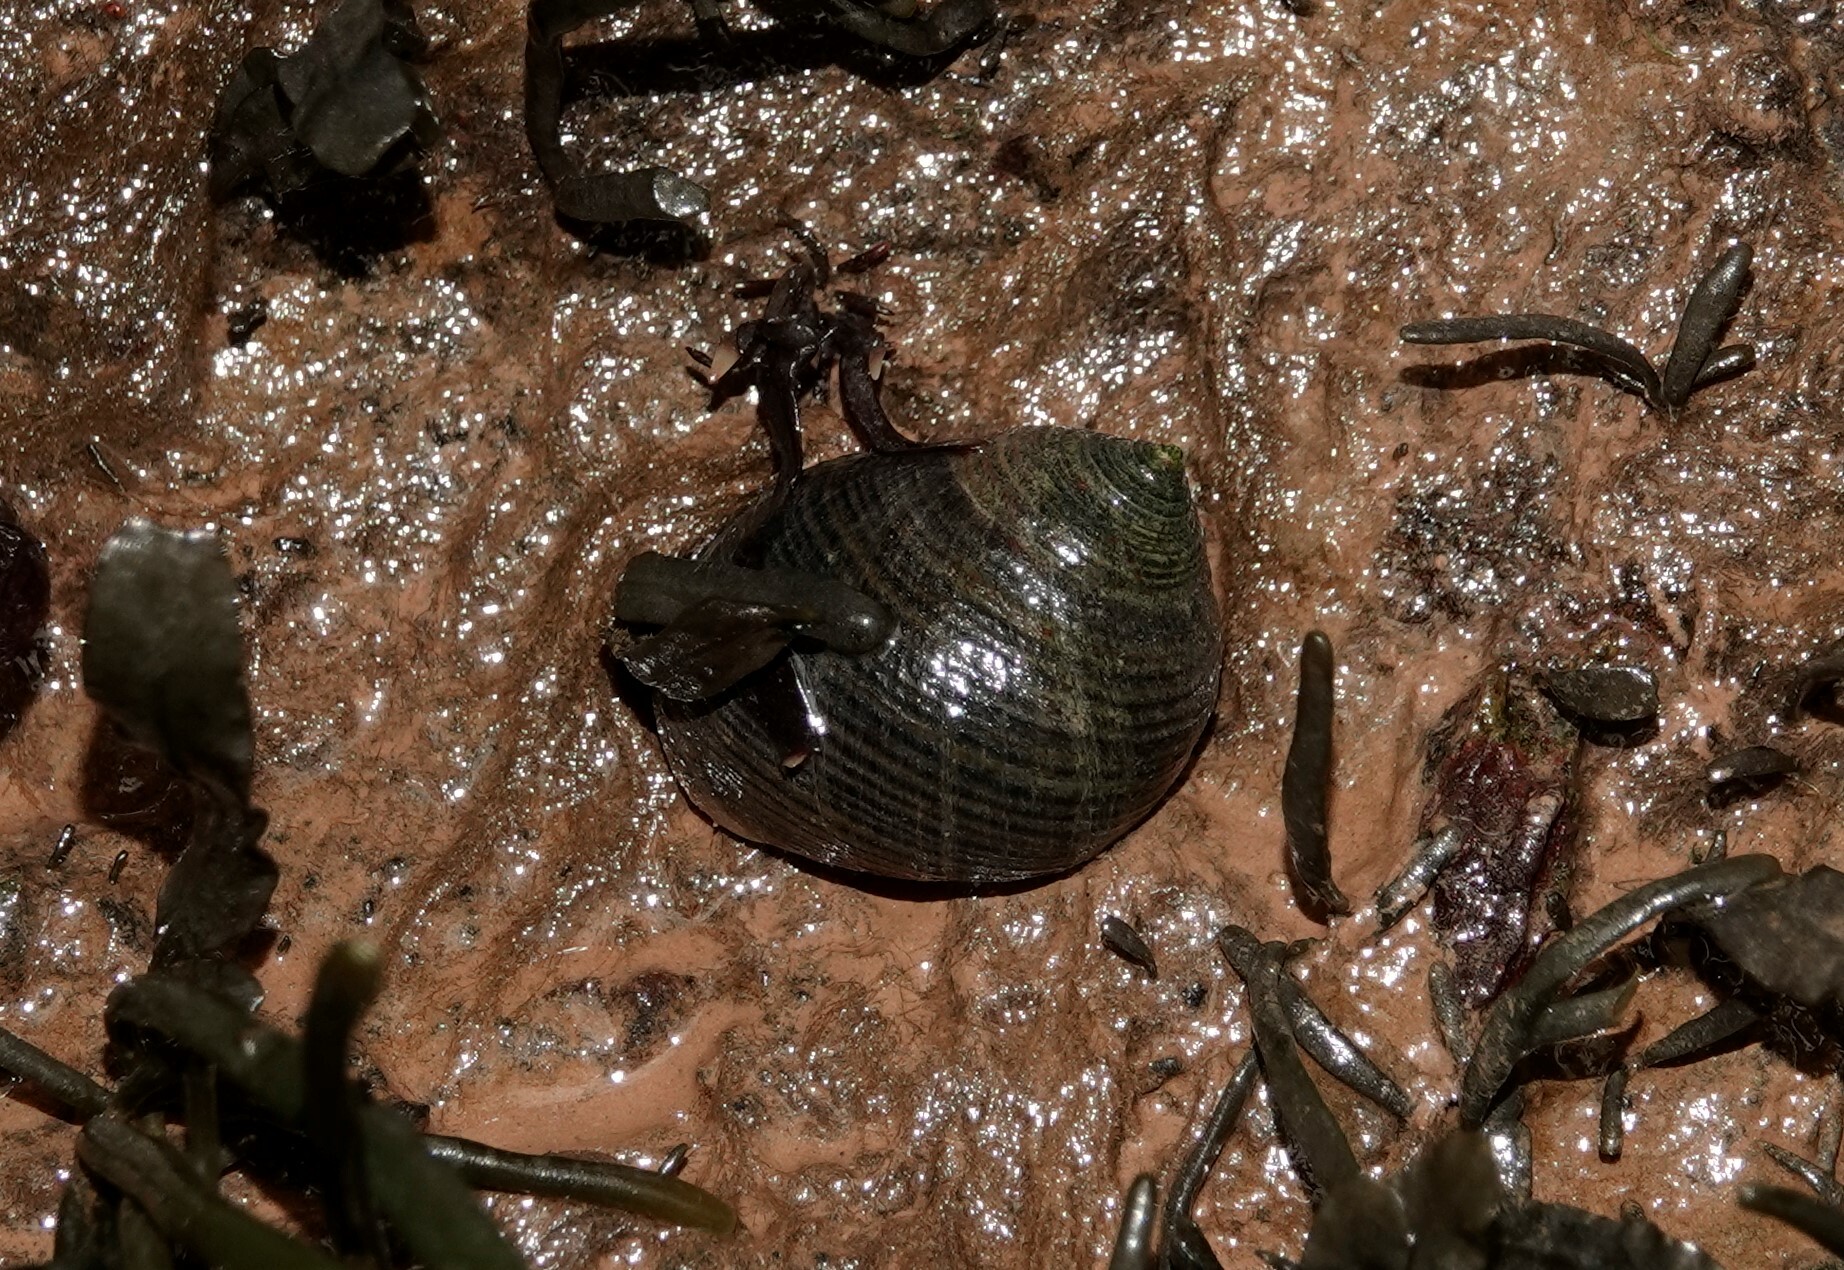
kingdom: Animalia
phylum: Mollusca
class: Gastropoda
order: Littorinimorpha
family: Littorinidae
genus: Littorina
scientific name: Littorina littorea
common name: Common periwinkle
